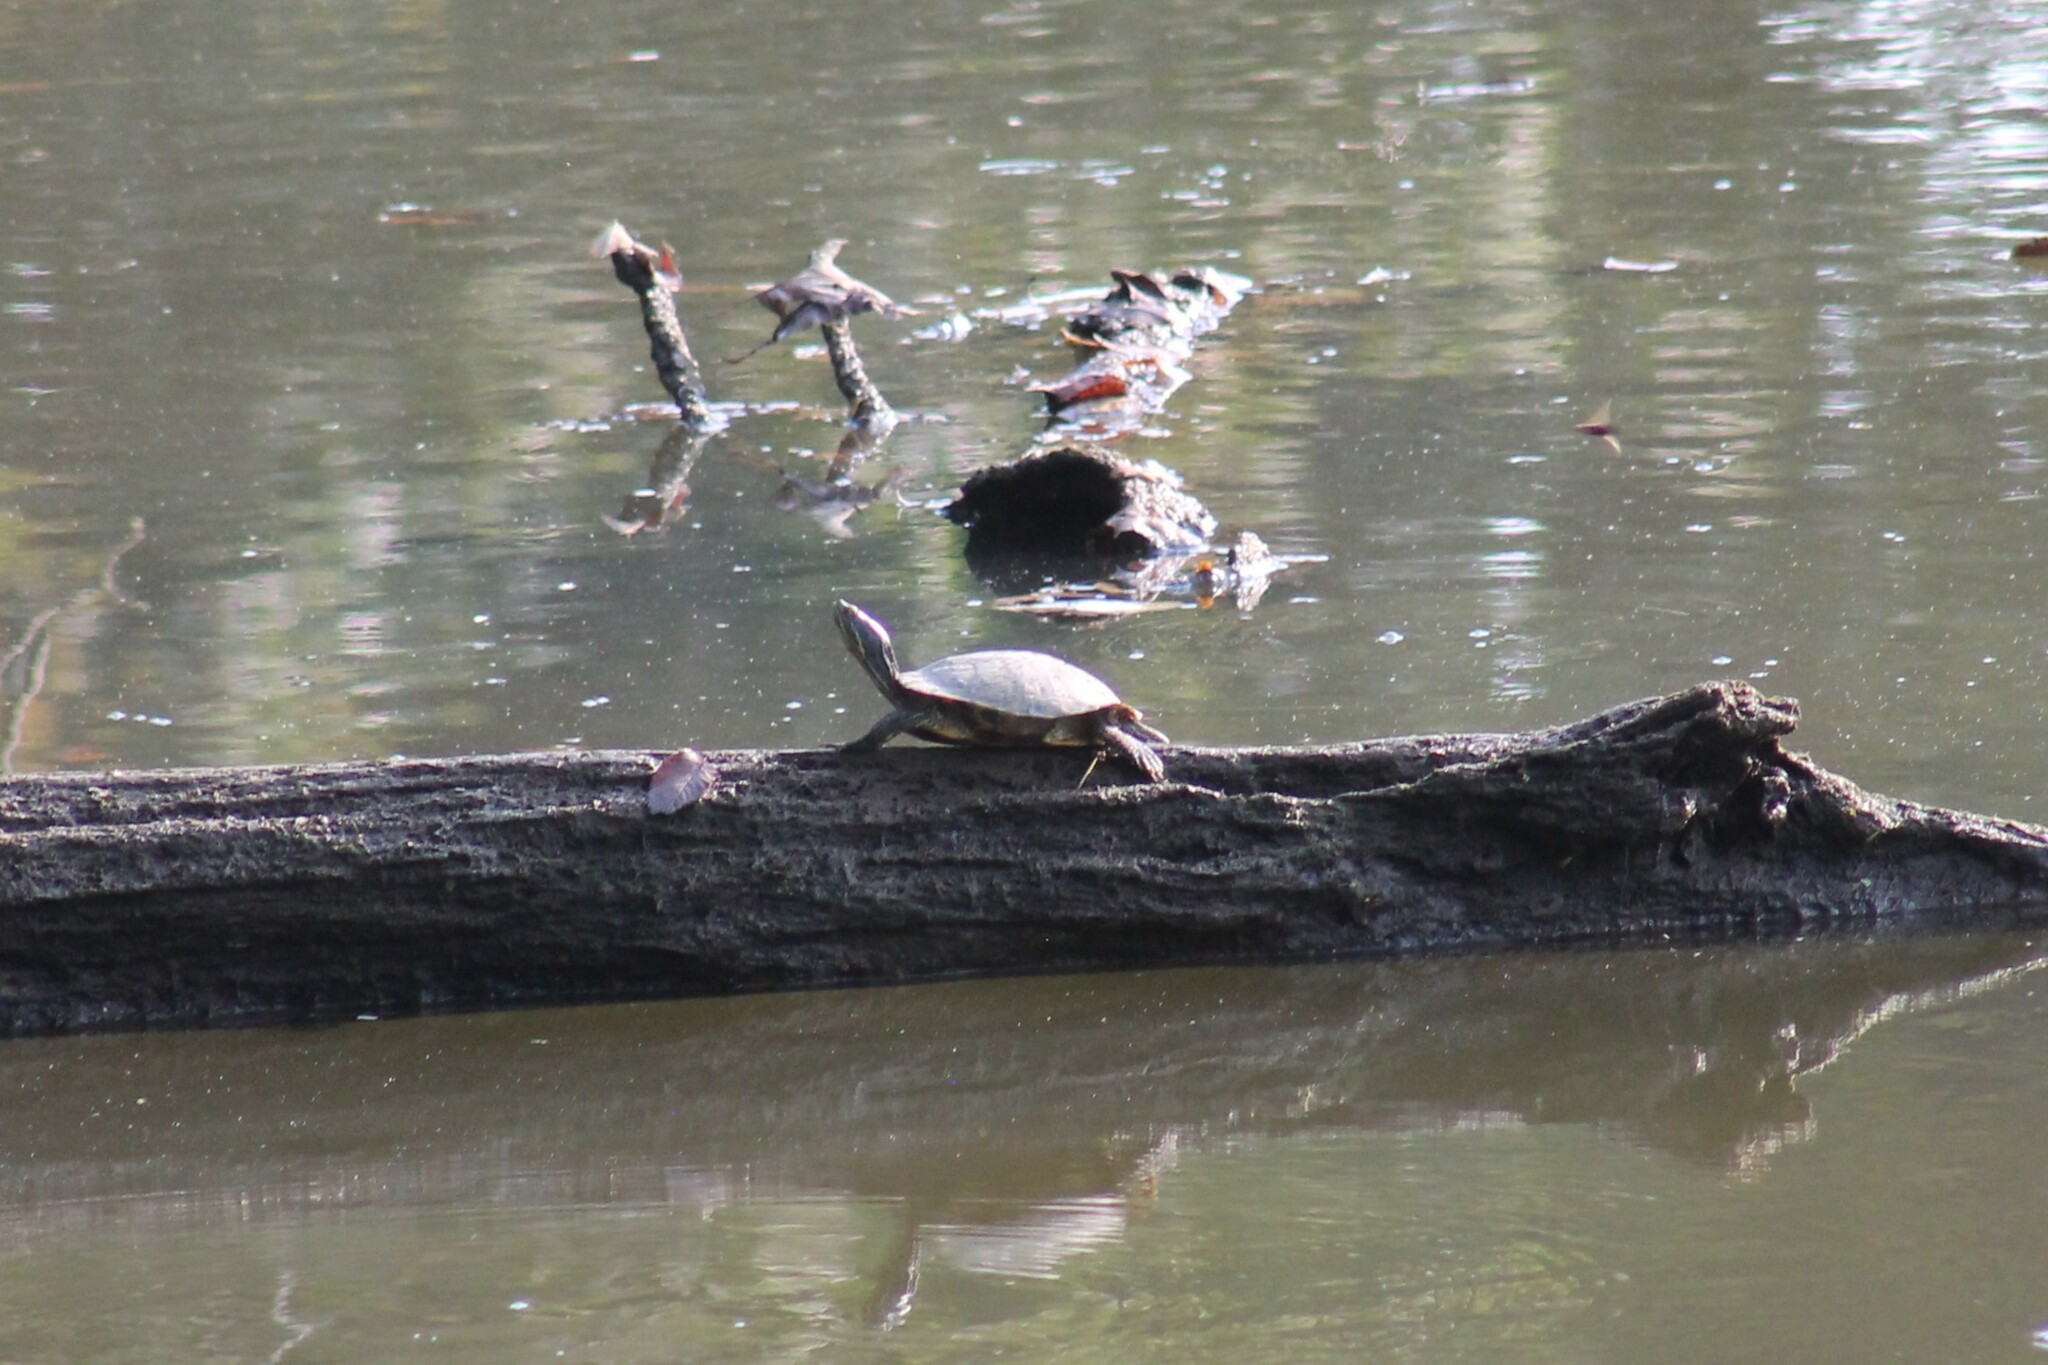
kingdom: Animalia
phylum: Chordata
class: Testudines
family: Emydidae
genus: Trachemys
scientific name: Trachemys scripta
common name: Slider
